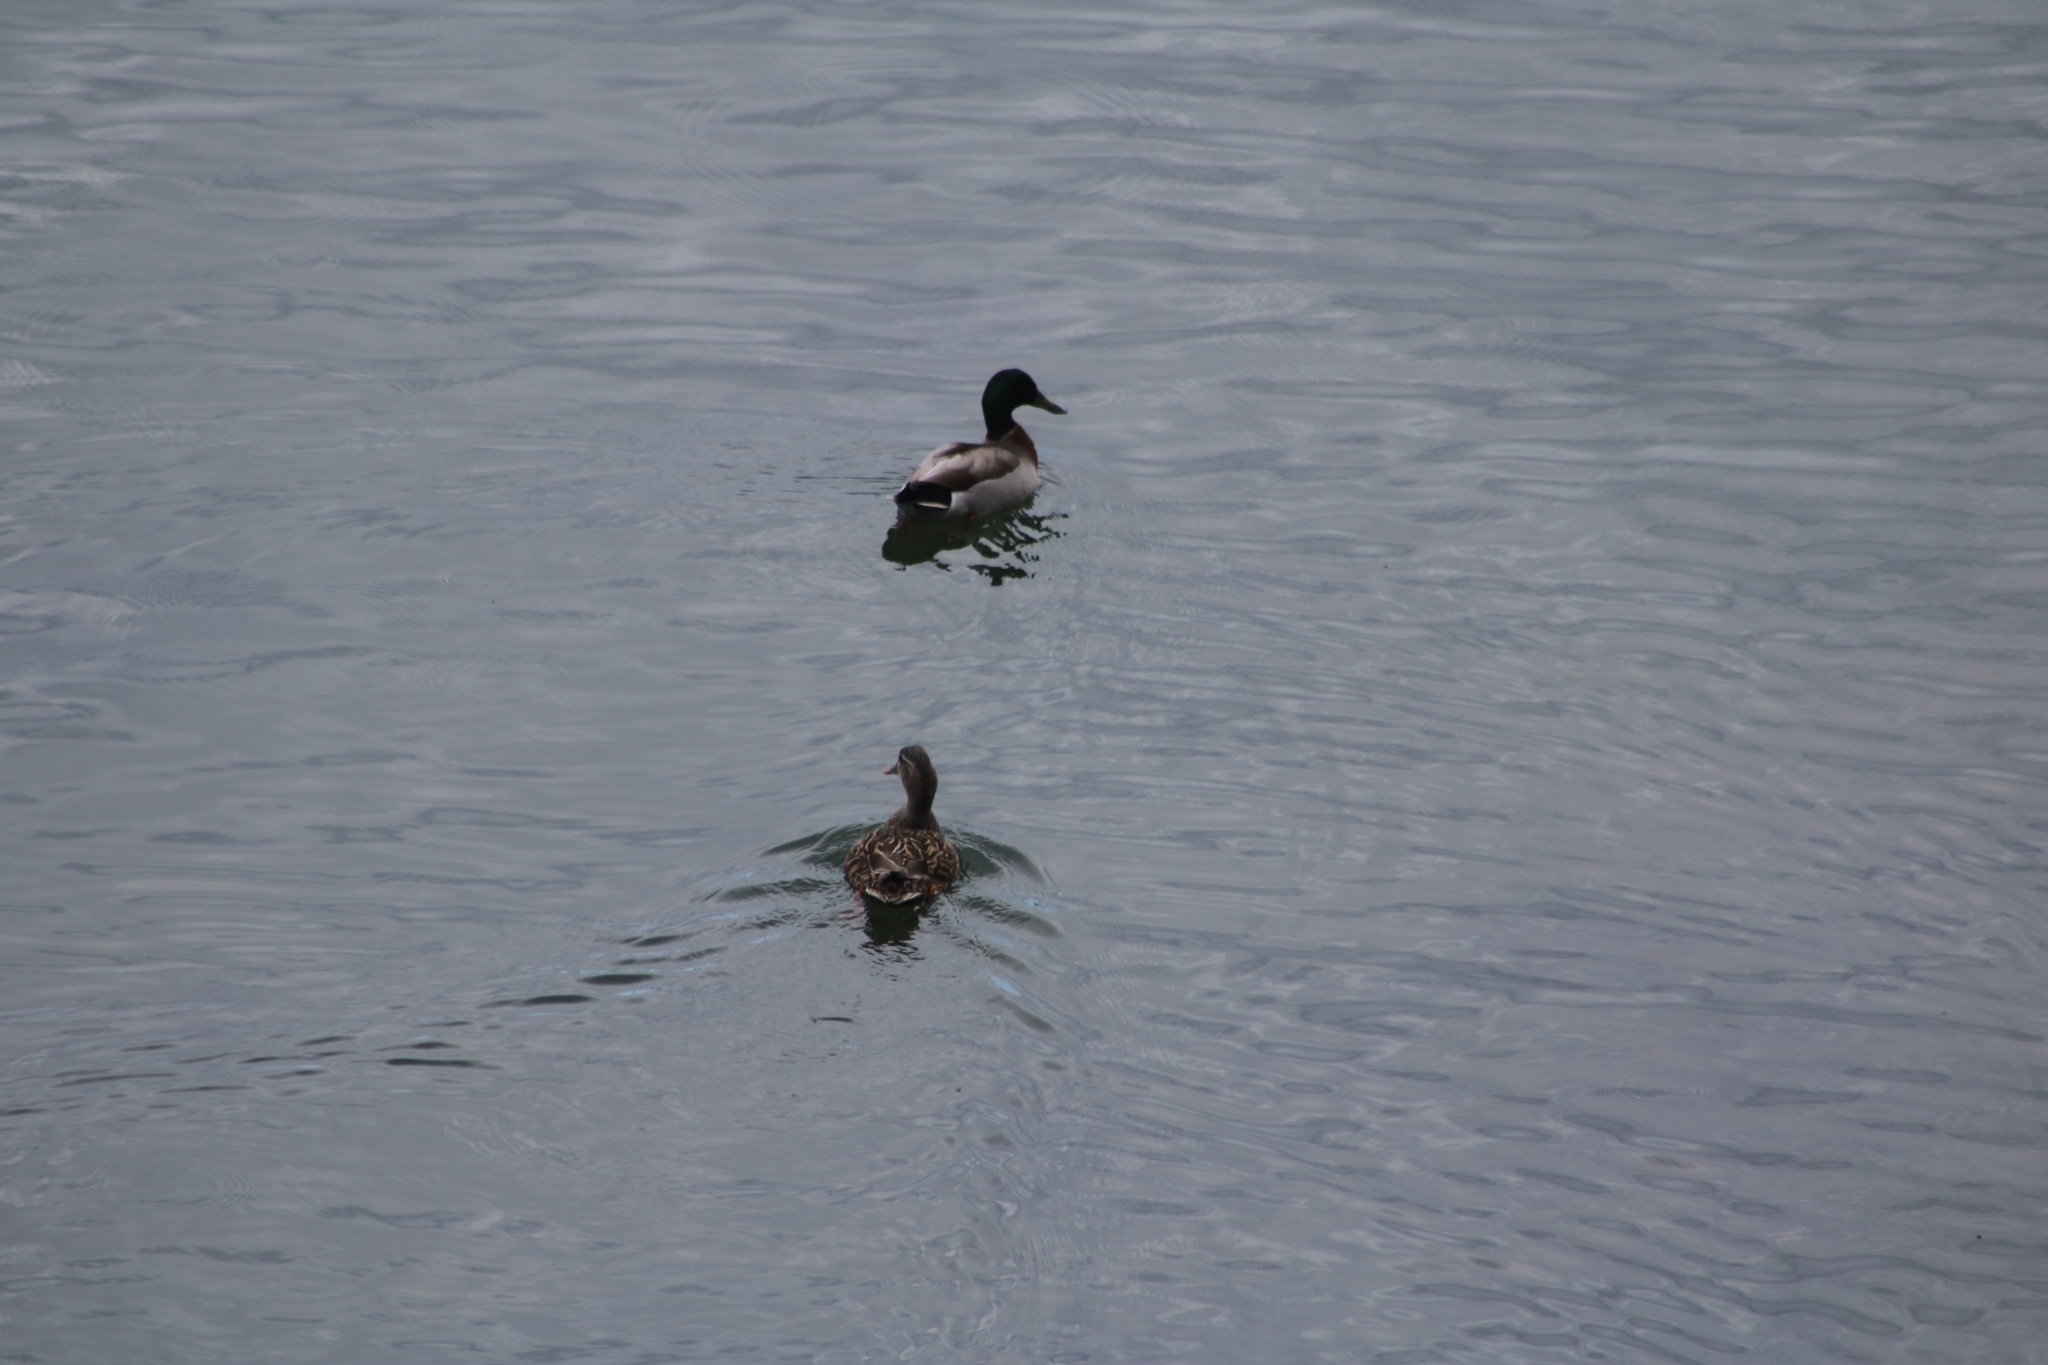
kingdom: Animalia
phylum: Chordata
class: Aves
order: Anseriformes
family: Anatidae
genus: Anas
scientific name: Anas platyrhynchos
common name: Mallard
